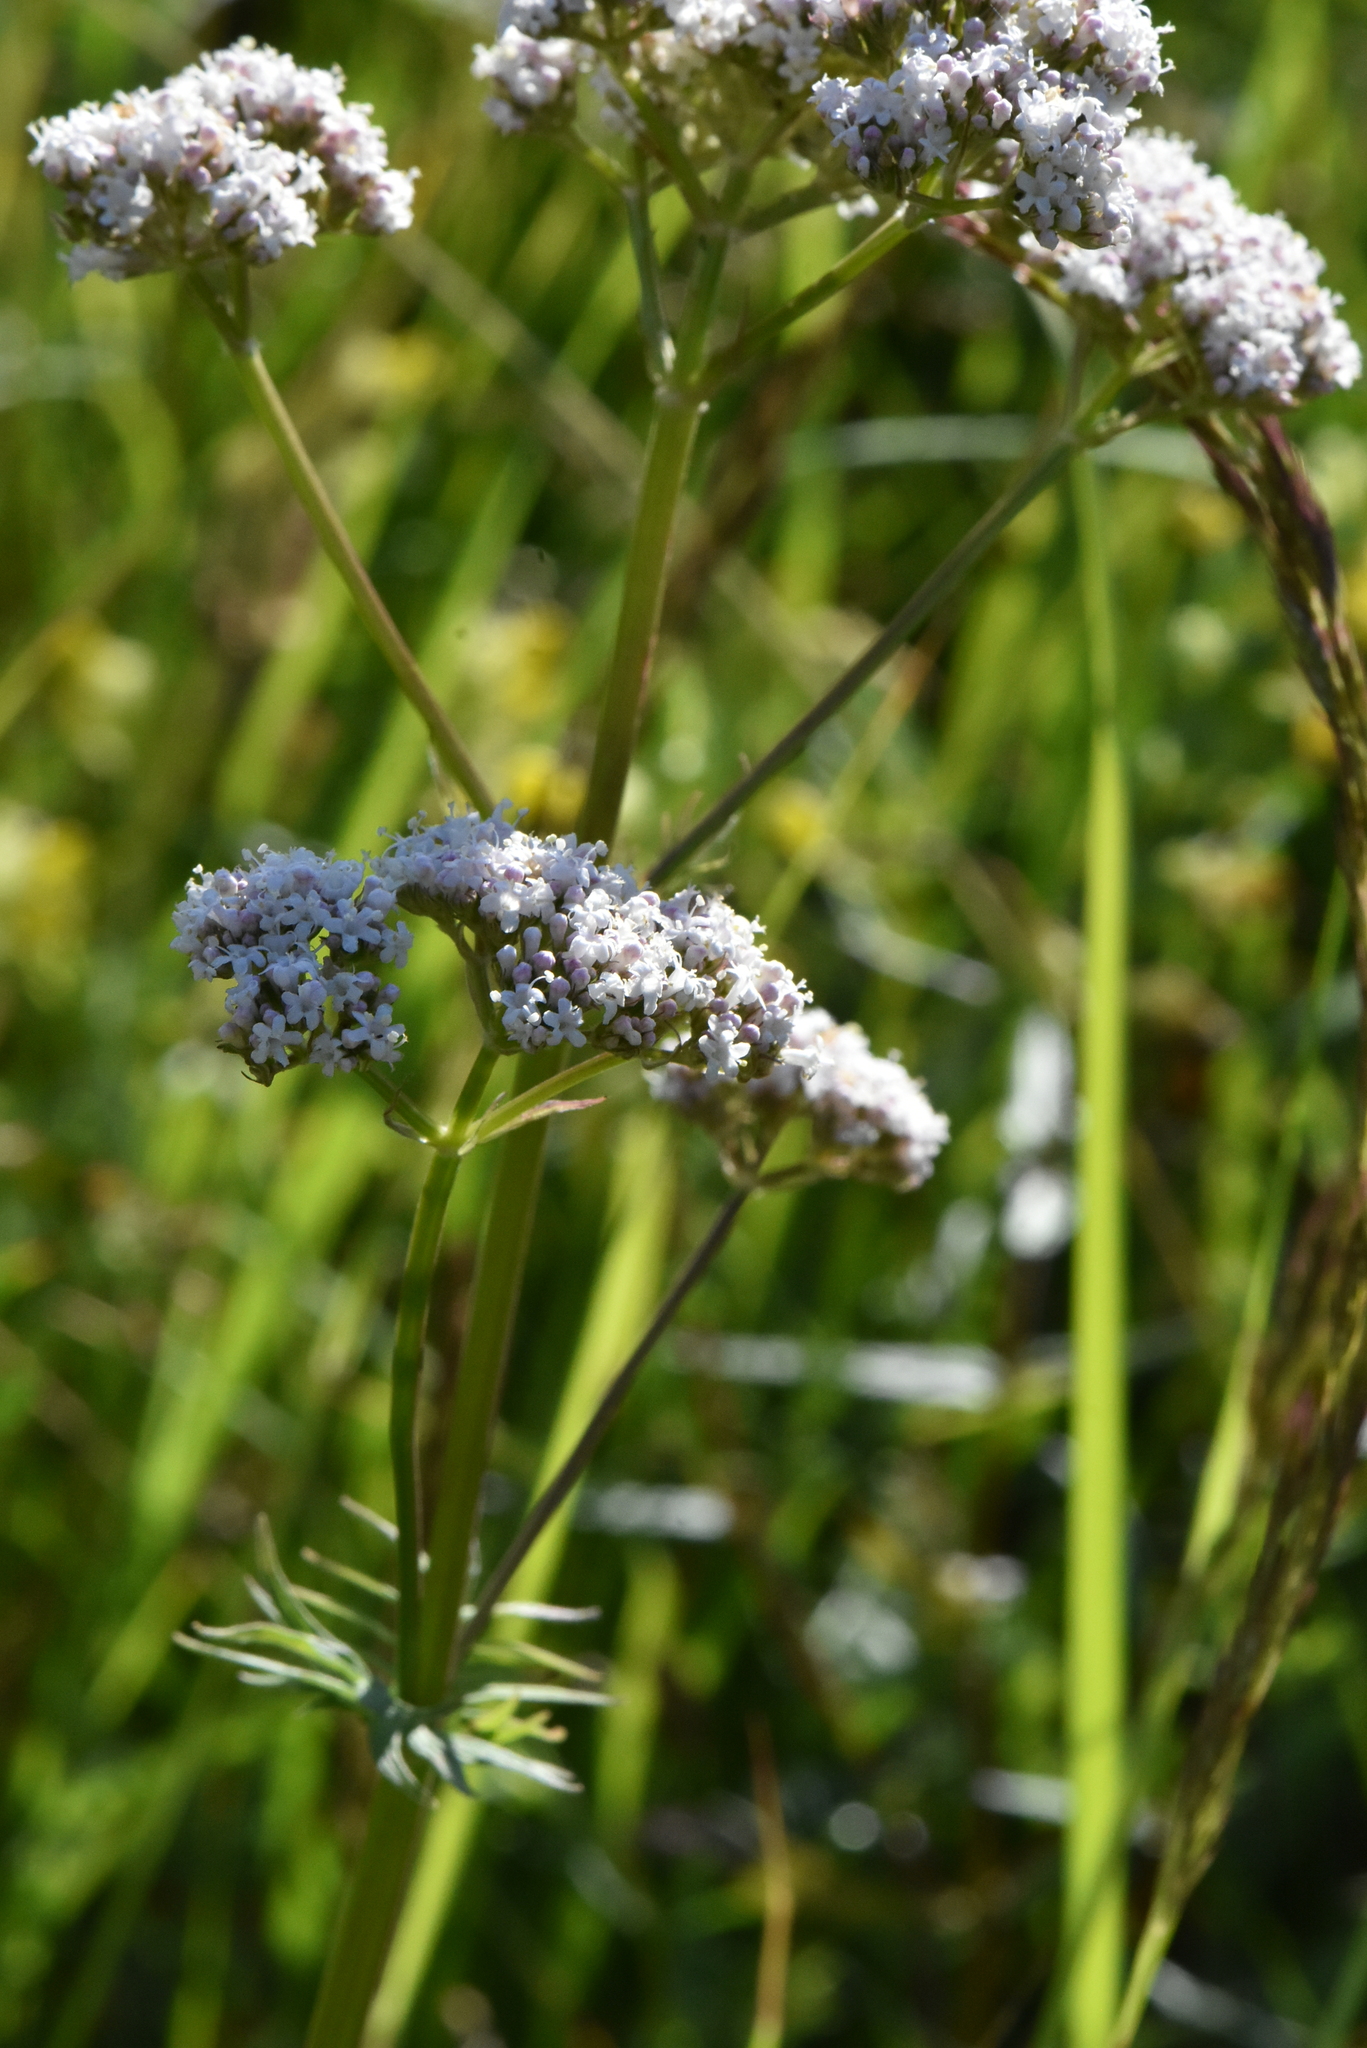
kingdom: Plantae
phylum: Tracheophyta
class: Magnoliopsida
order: Dipsacales
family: Caprifoliaceae
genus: Valeriana
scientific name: Valeriana officinalis
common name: Common valerian
